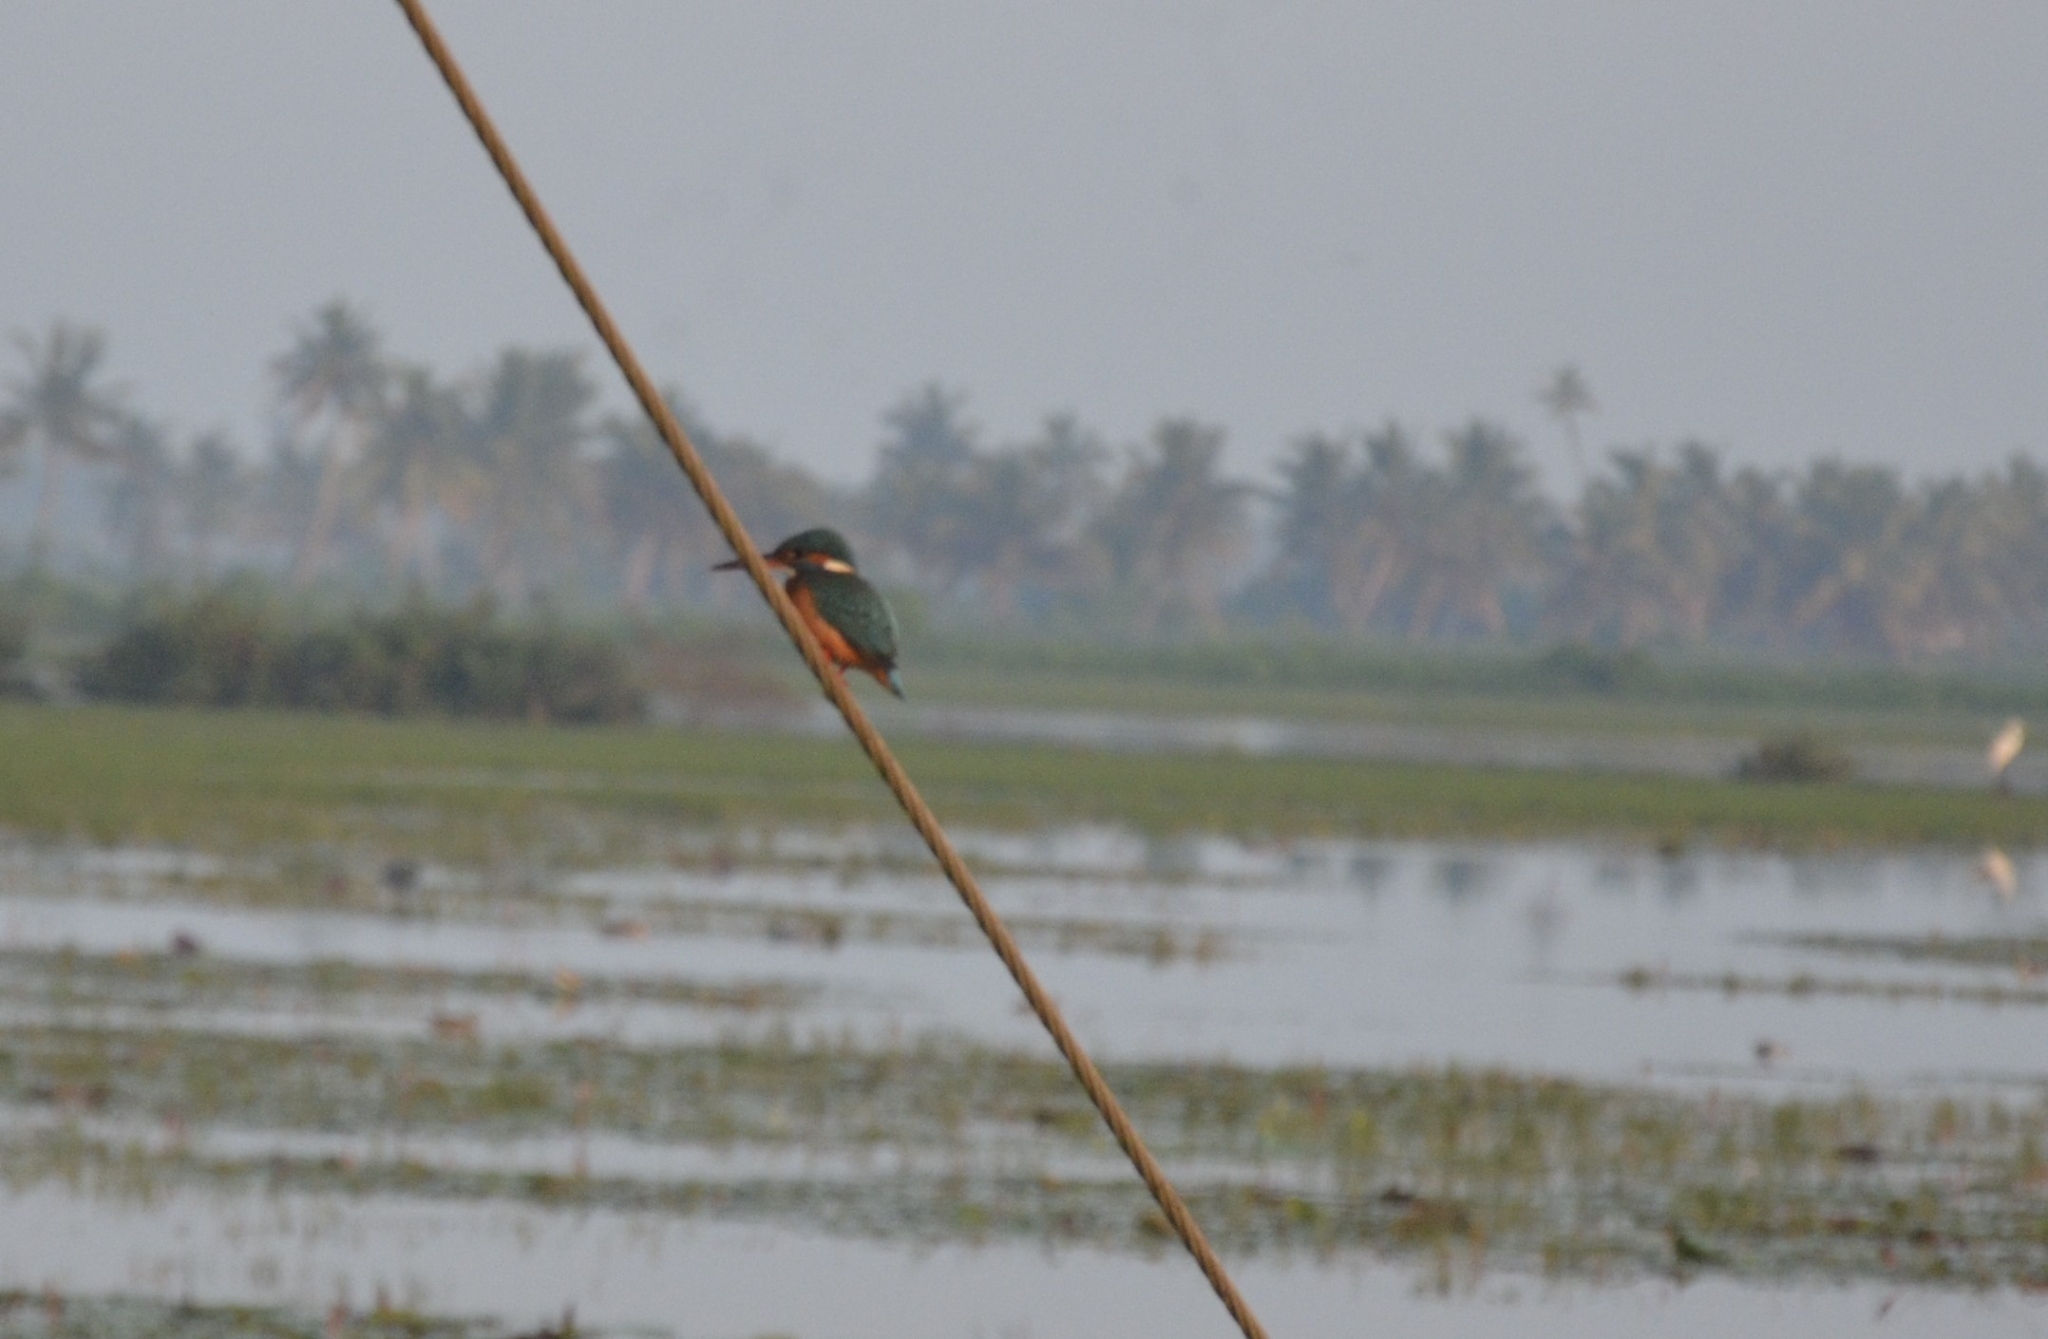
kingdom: Animalia
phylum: Chordata
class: Aves
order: Coraciiformes
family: Alcedinidae
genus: Alcedo
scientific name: Alcedo atthis
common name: Common kingfisher
